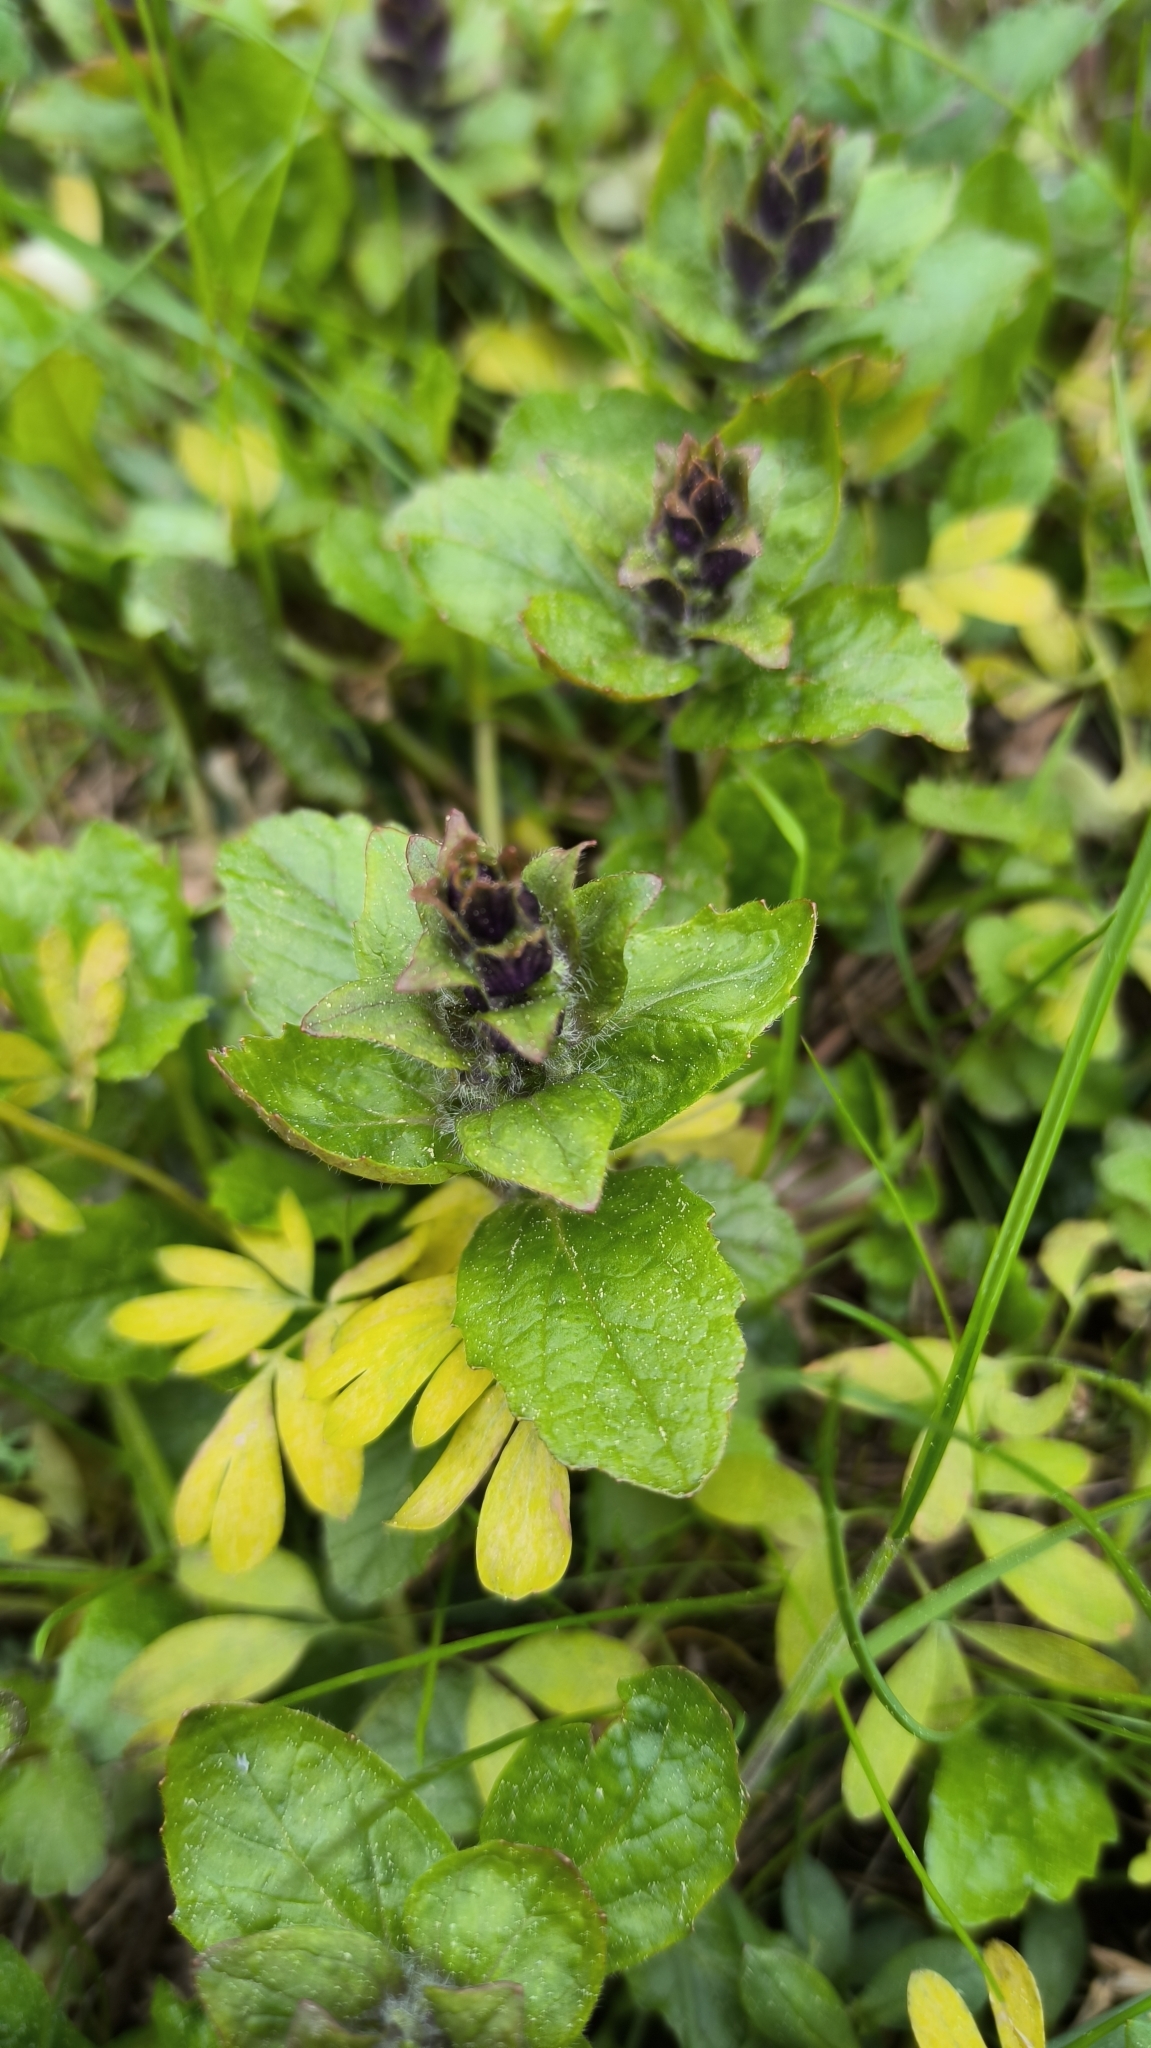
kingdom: Plantae
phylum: Tracheophyta
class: Magnoliopsida
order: Lamiales
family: Lamiaceae
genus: Ajuga
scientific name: Ajuga reptans
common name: Bugle
